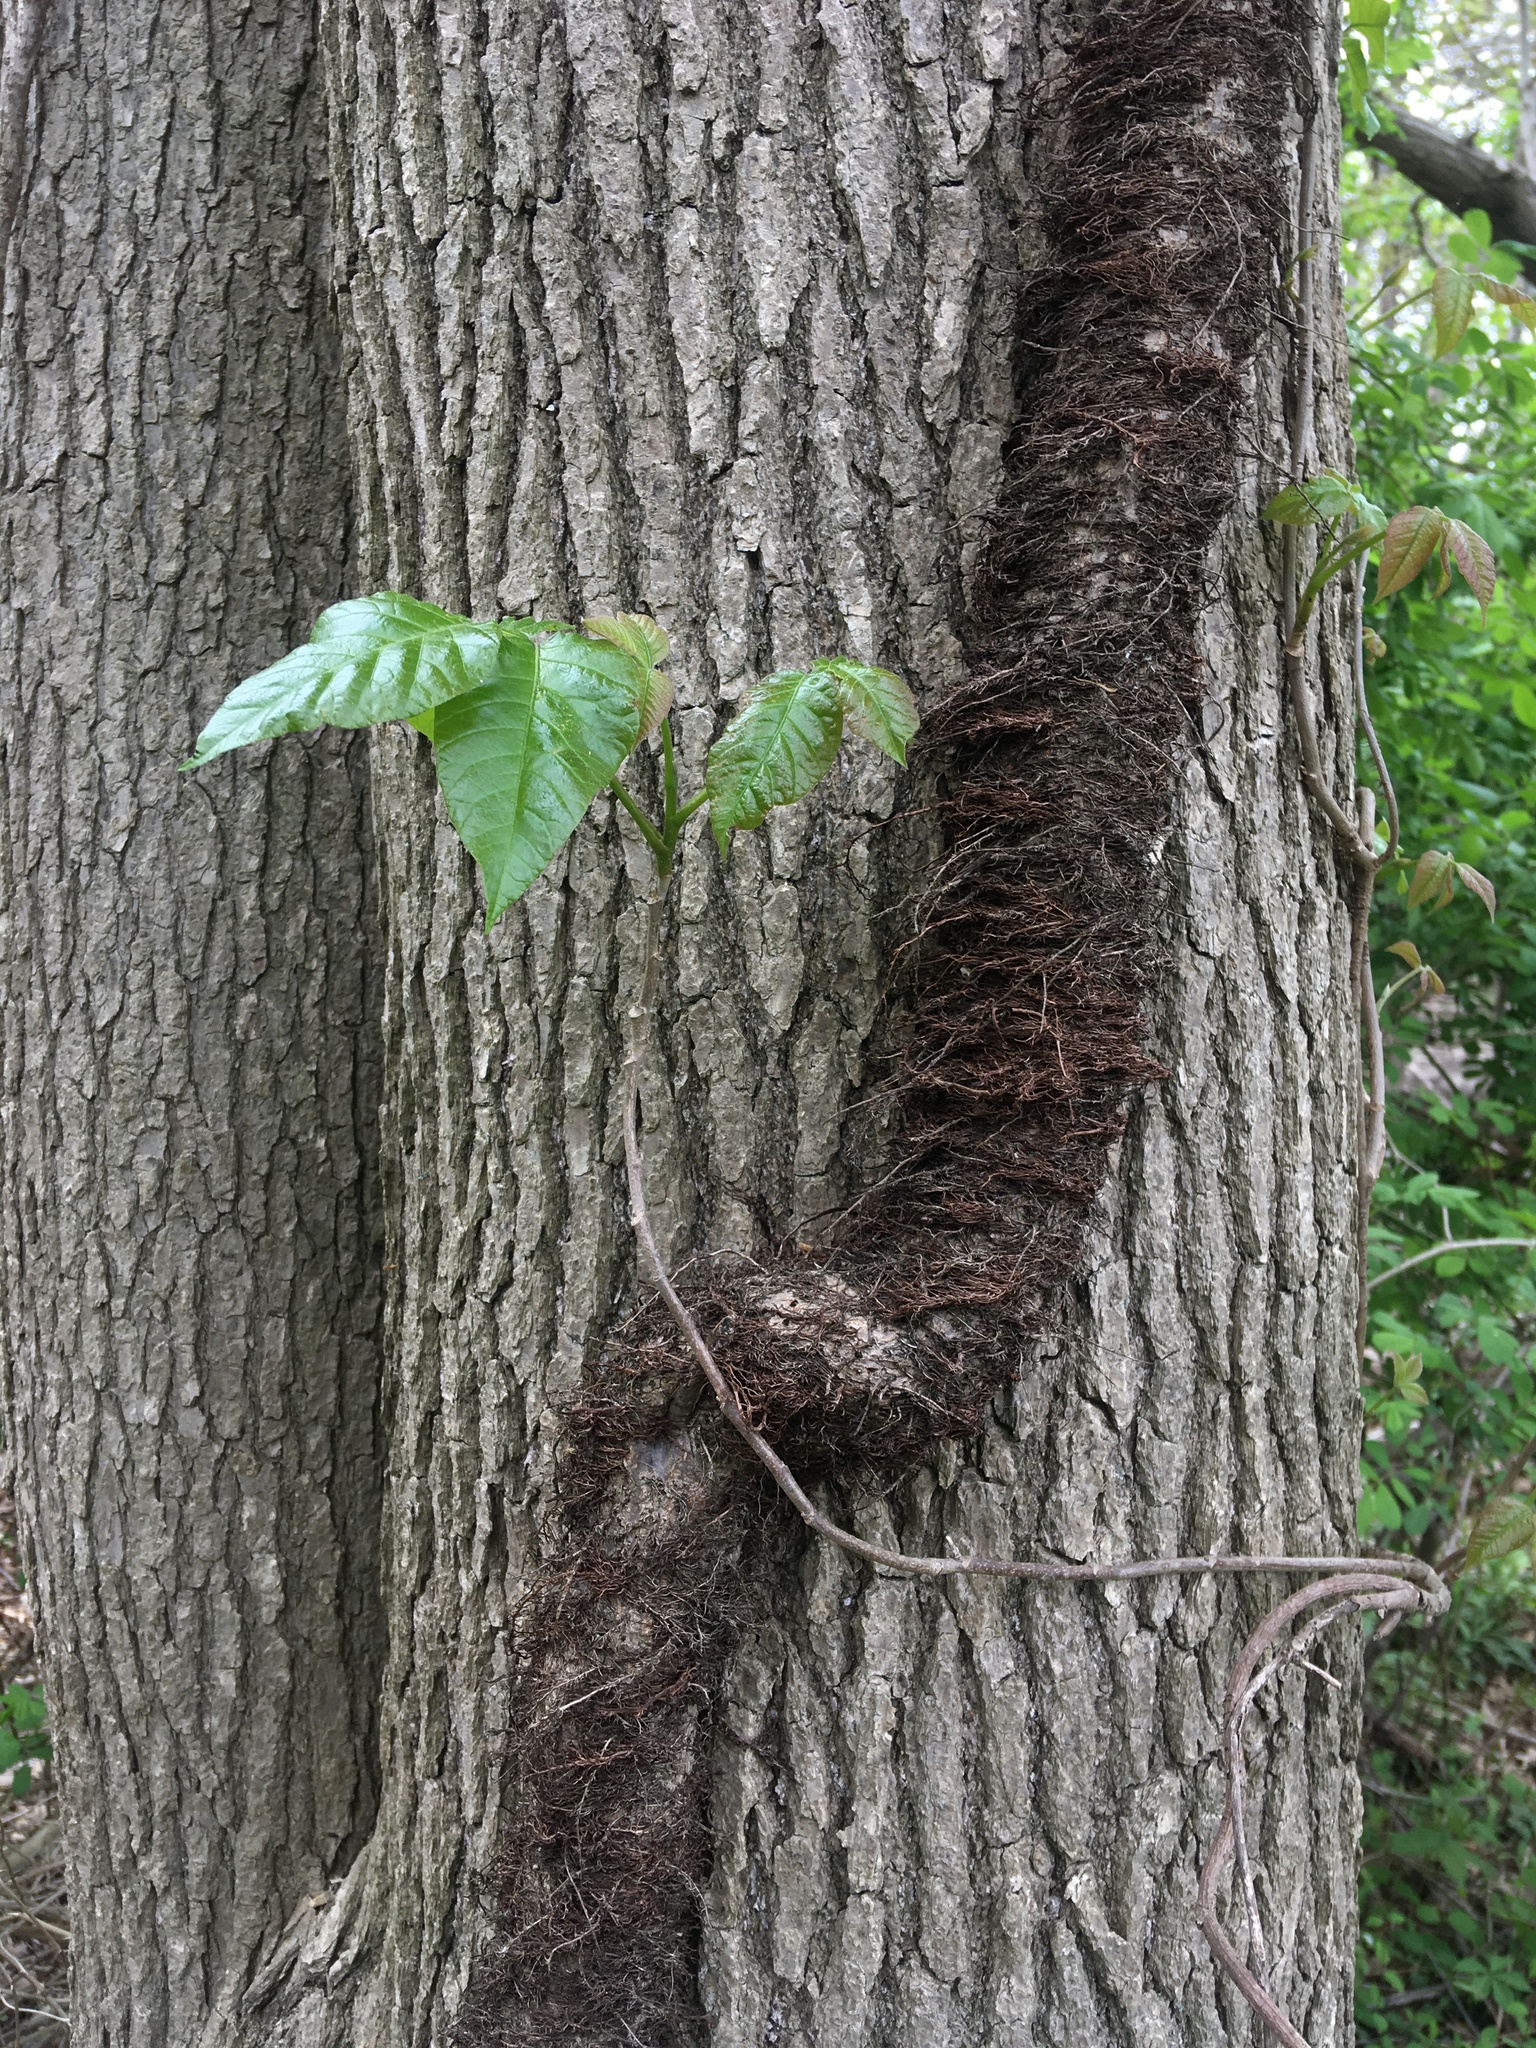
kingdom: Plantae
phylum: Tracheophyta
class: Magnoliopsida
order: Sapindales
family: Anacardiaceae
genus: Toxicodendron
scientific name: Toxicodendron radicans
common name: Poison ivy
